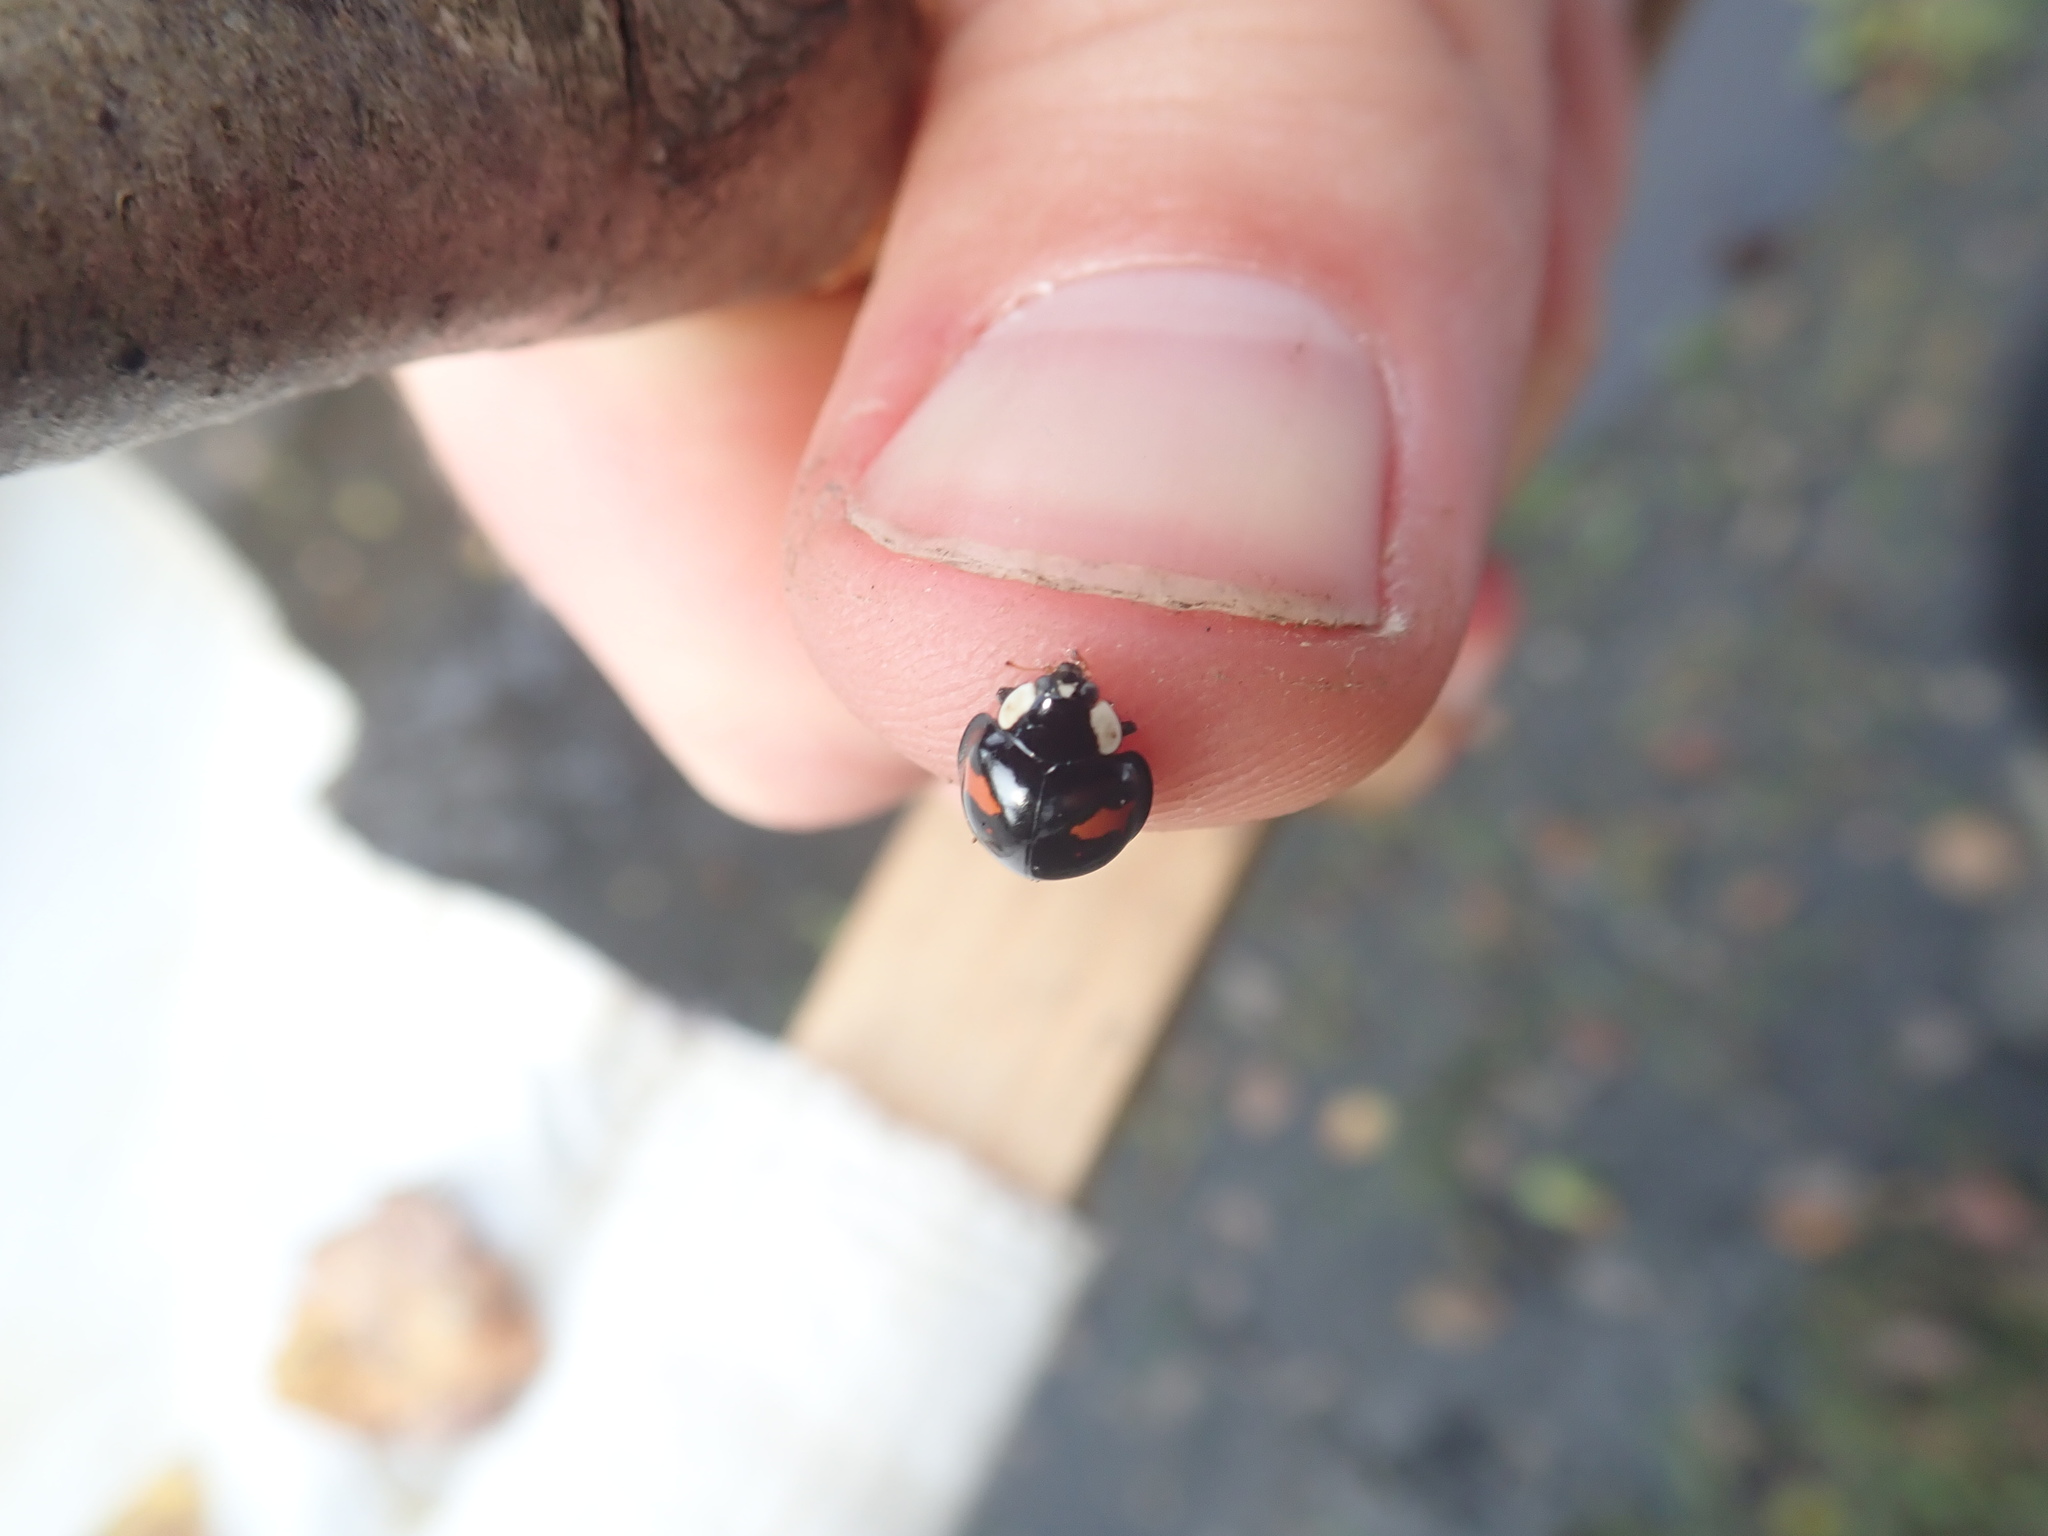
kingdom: Animalia
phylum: Arthropoda
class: Insecta
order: Coleoptera
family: Coccinellidae
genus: Harmonia
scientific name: Harmonia axyridis
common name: Harlequin ladybird
